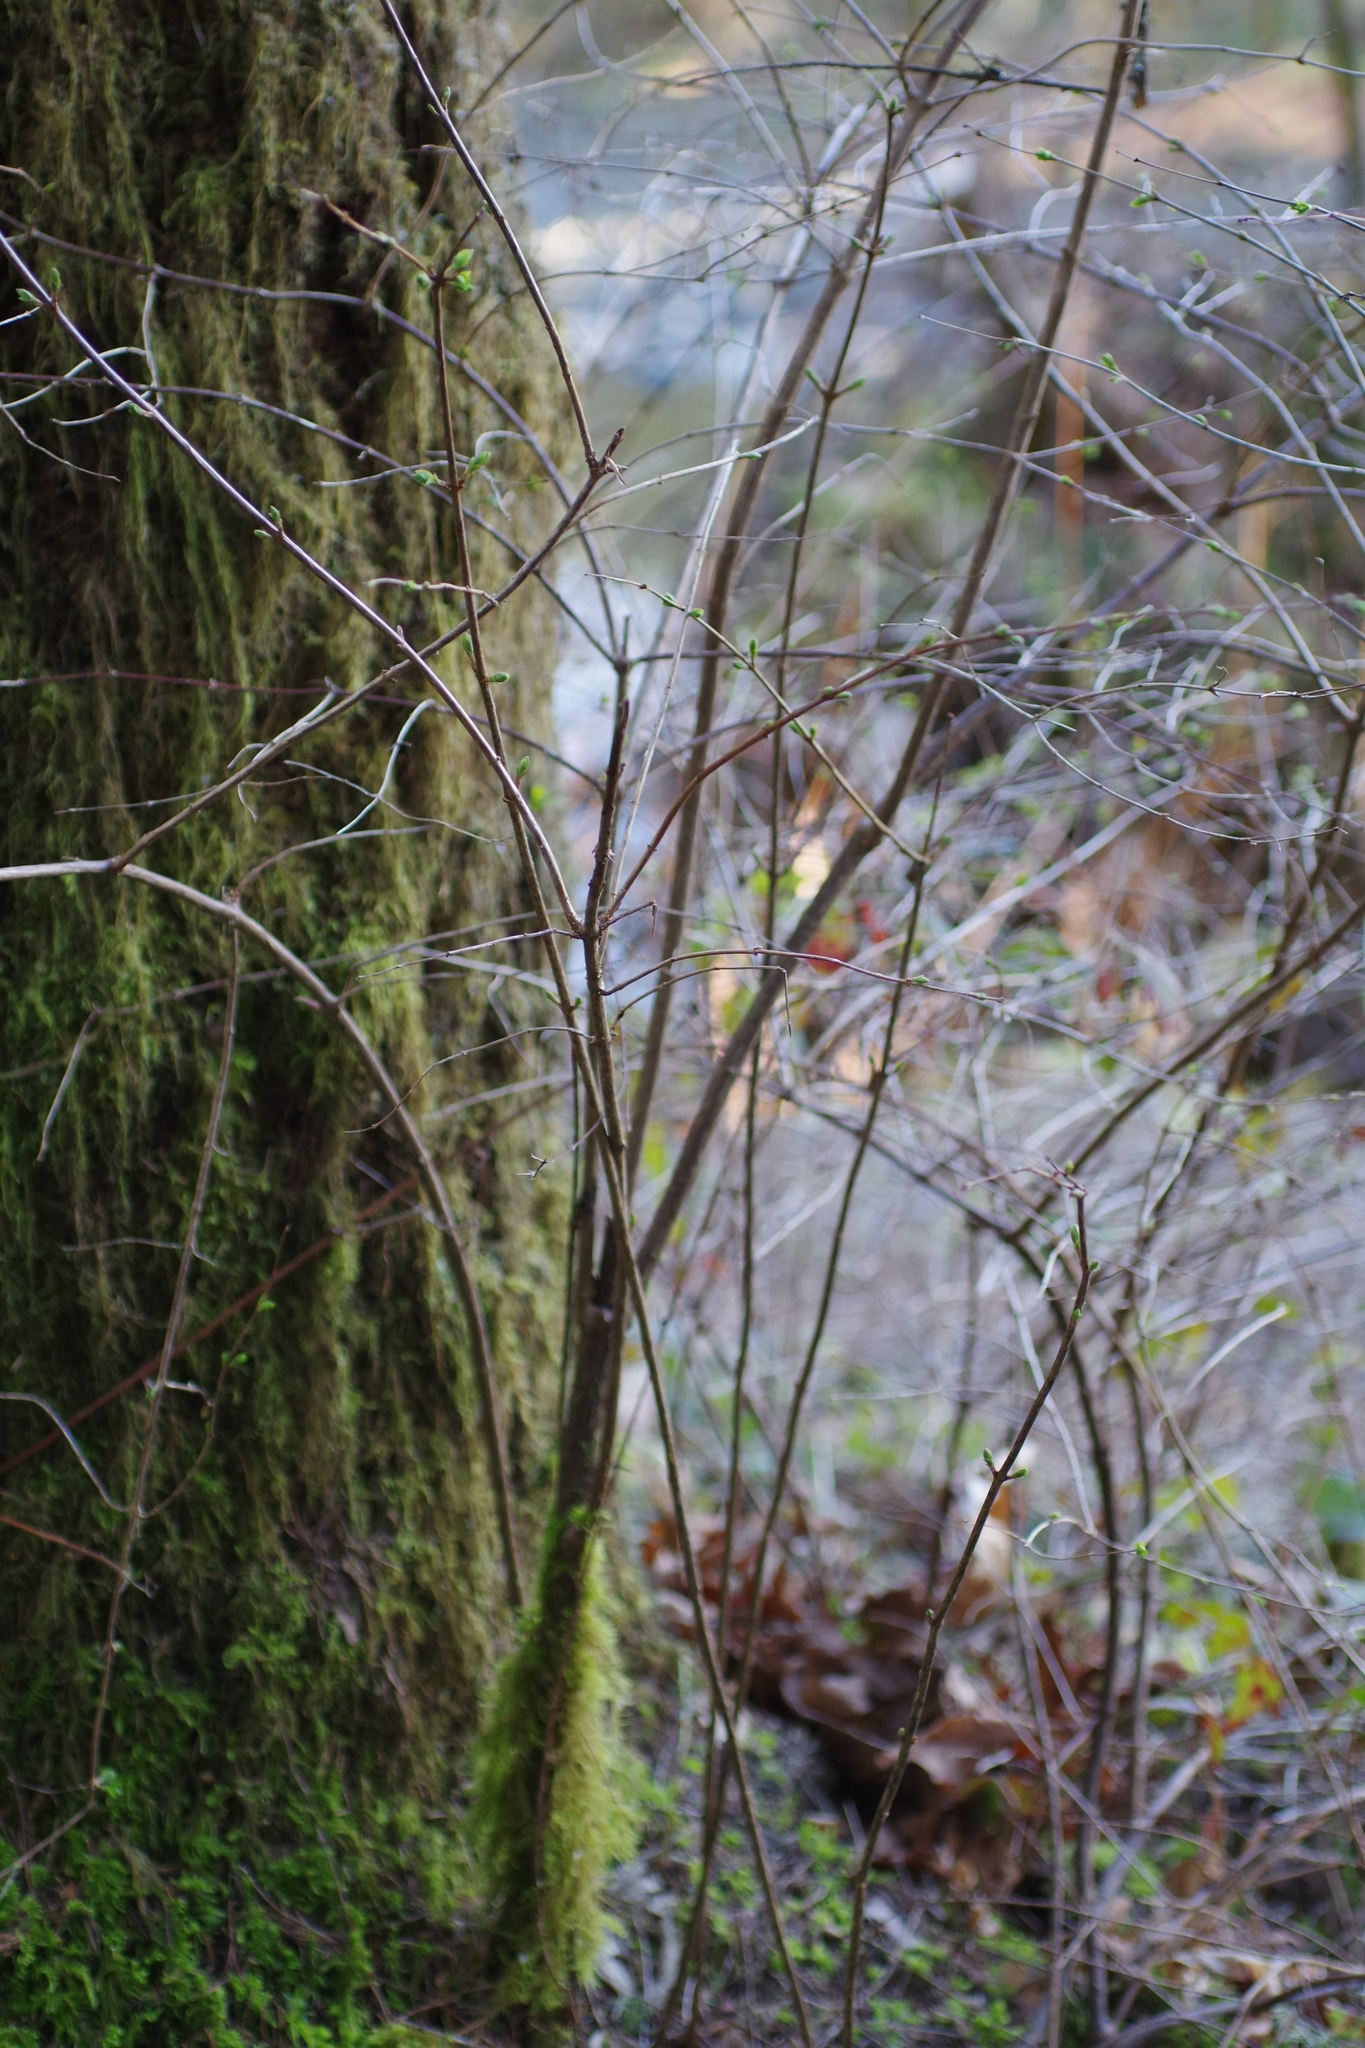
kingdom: Plantae
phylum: Tracheophyta
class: Magnoliopsida
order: Dipsacales
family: Caprifoliaceae
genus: Symphoricarpos
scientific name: Symphoricarpos albus
